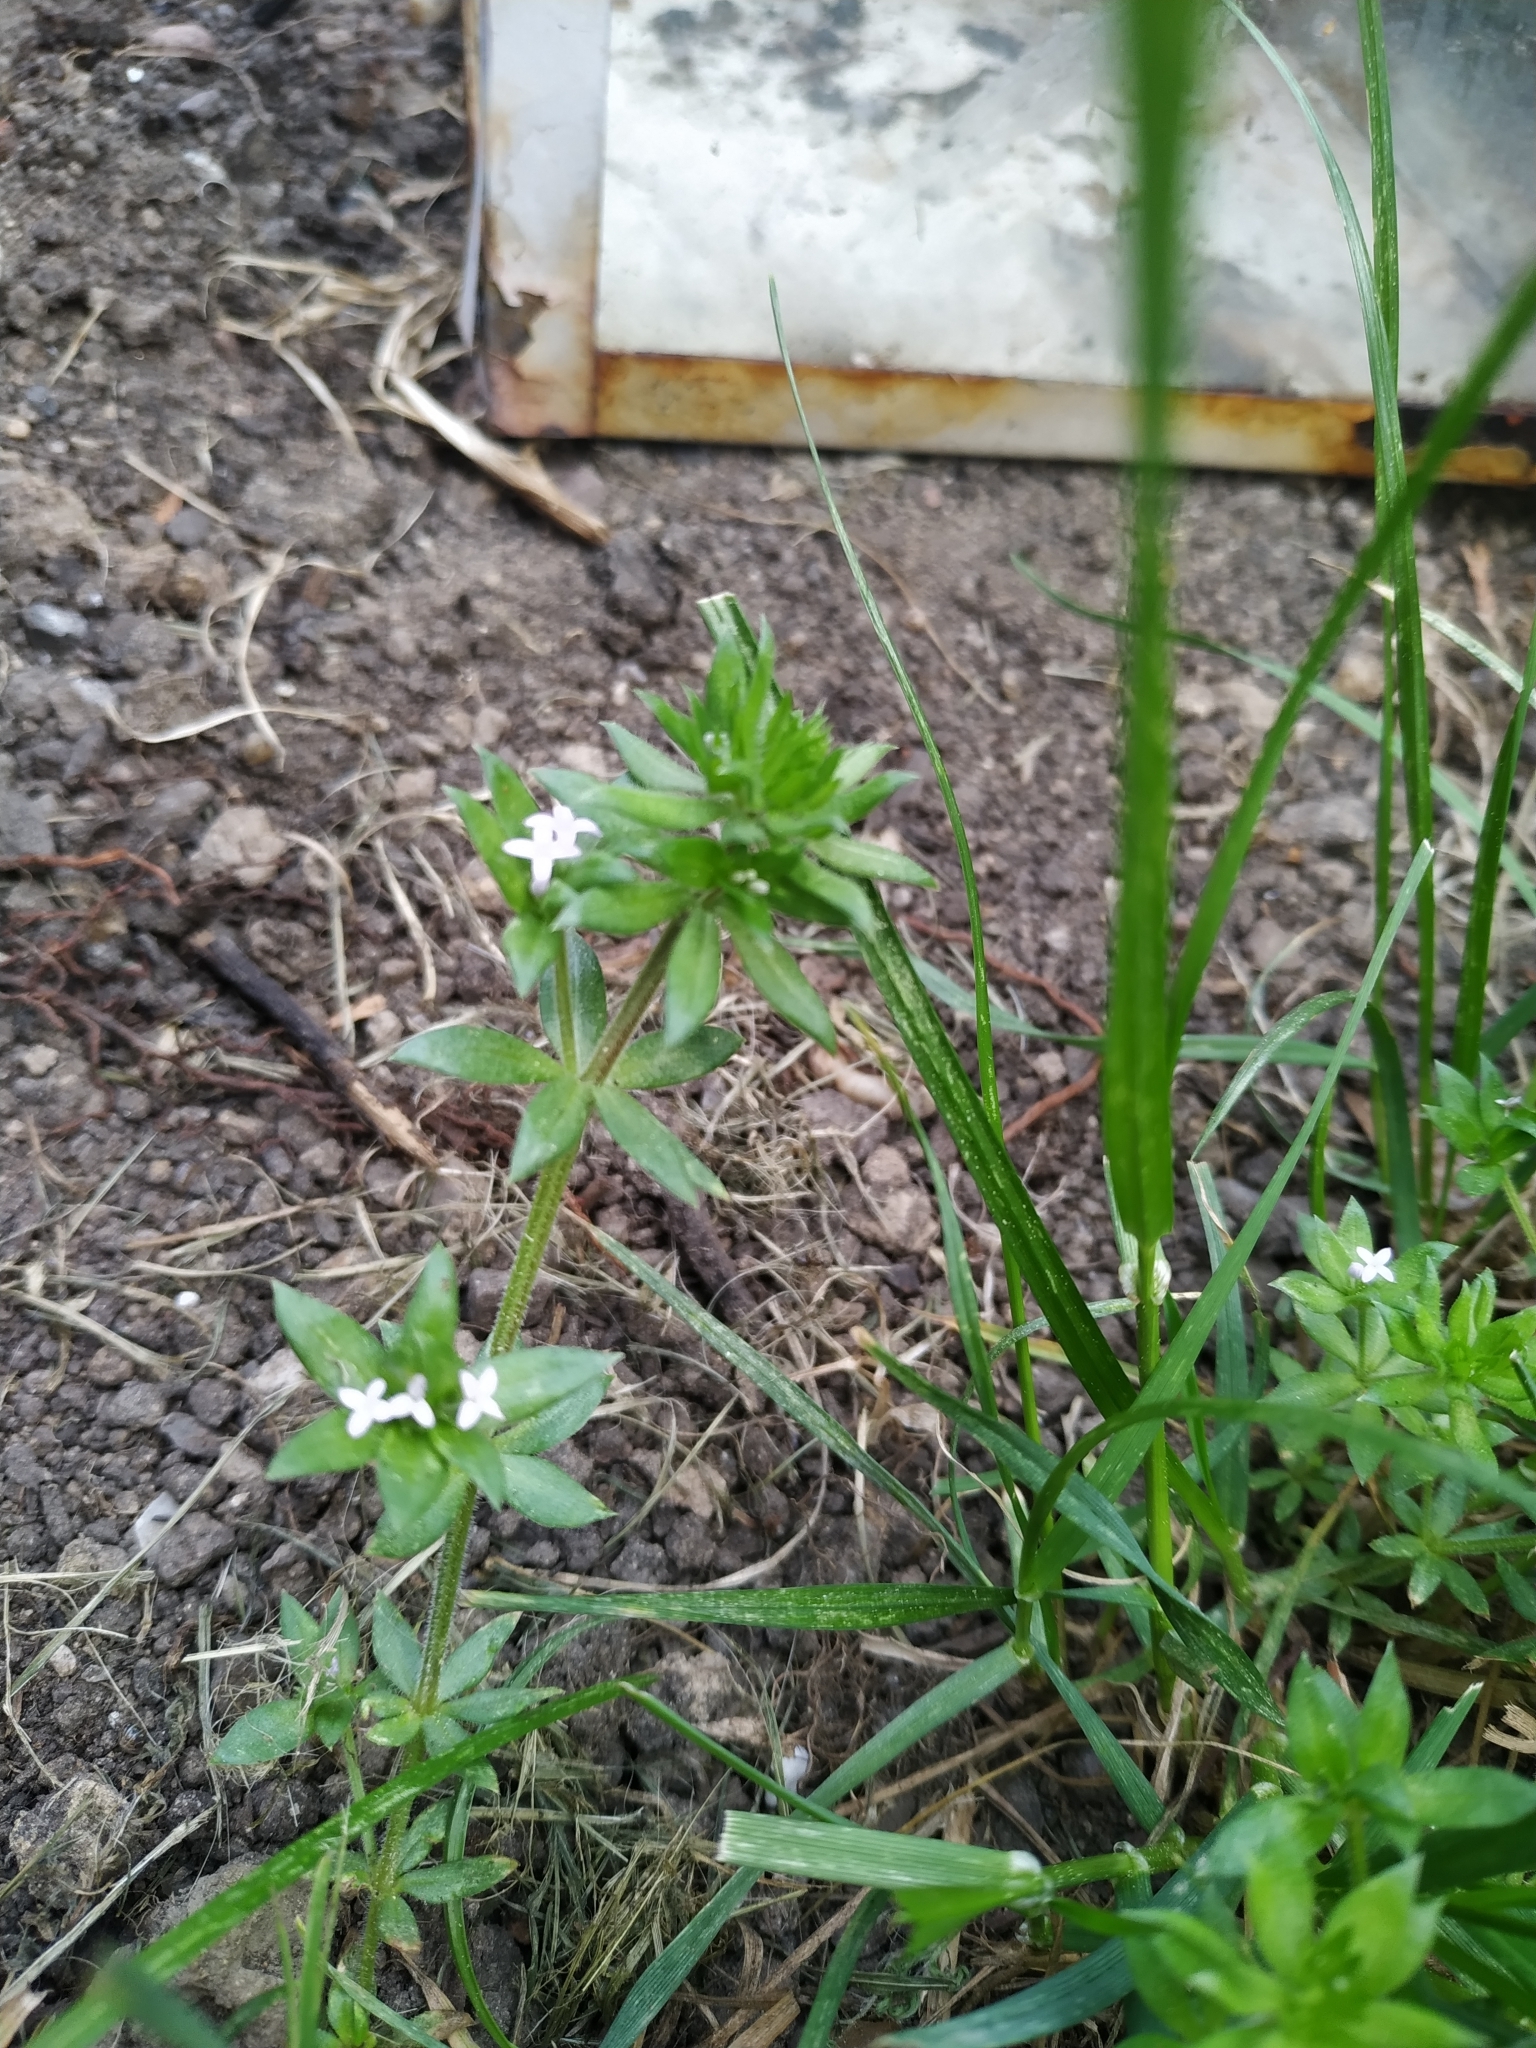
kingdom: Plantae
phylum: Tracheophyta
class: Magnoliopsida
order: Gentianales
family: Rubiaceae
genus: Sherardia
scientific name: Sherardia arvensis
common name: Field madder
